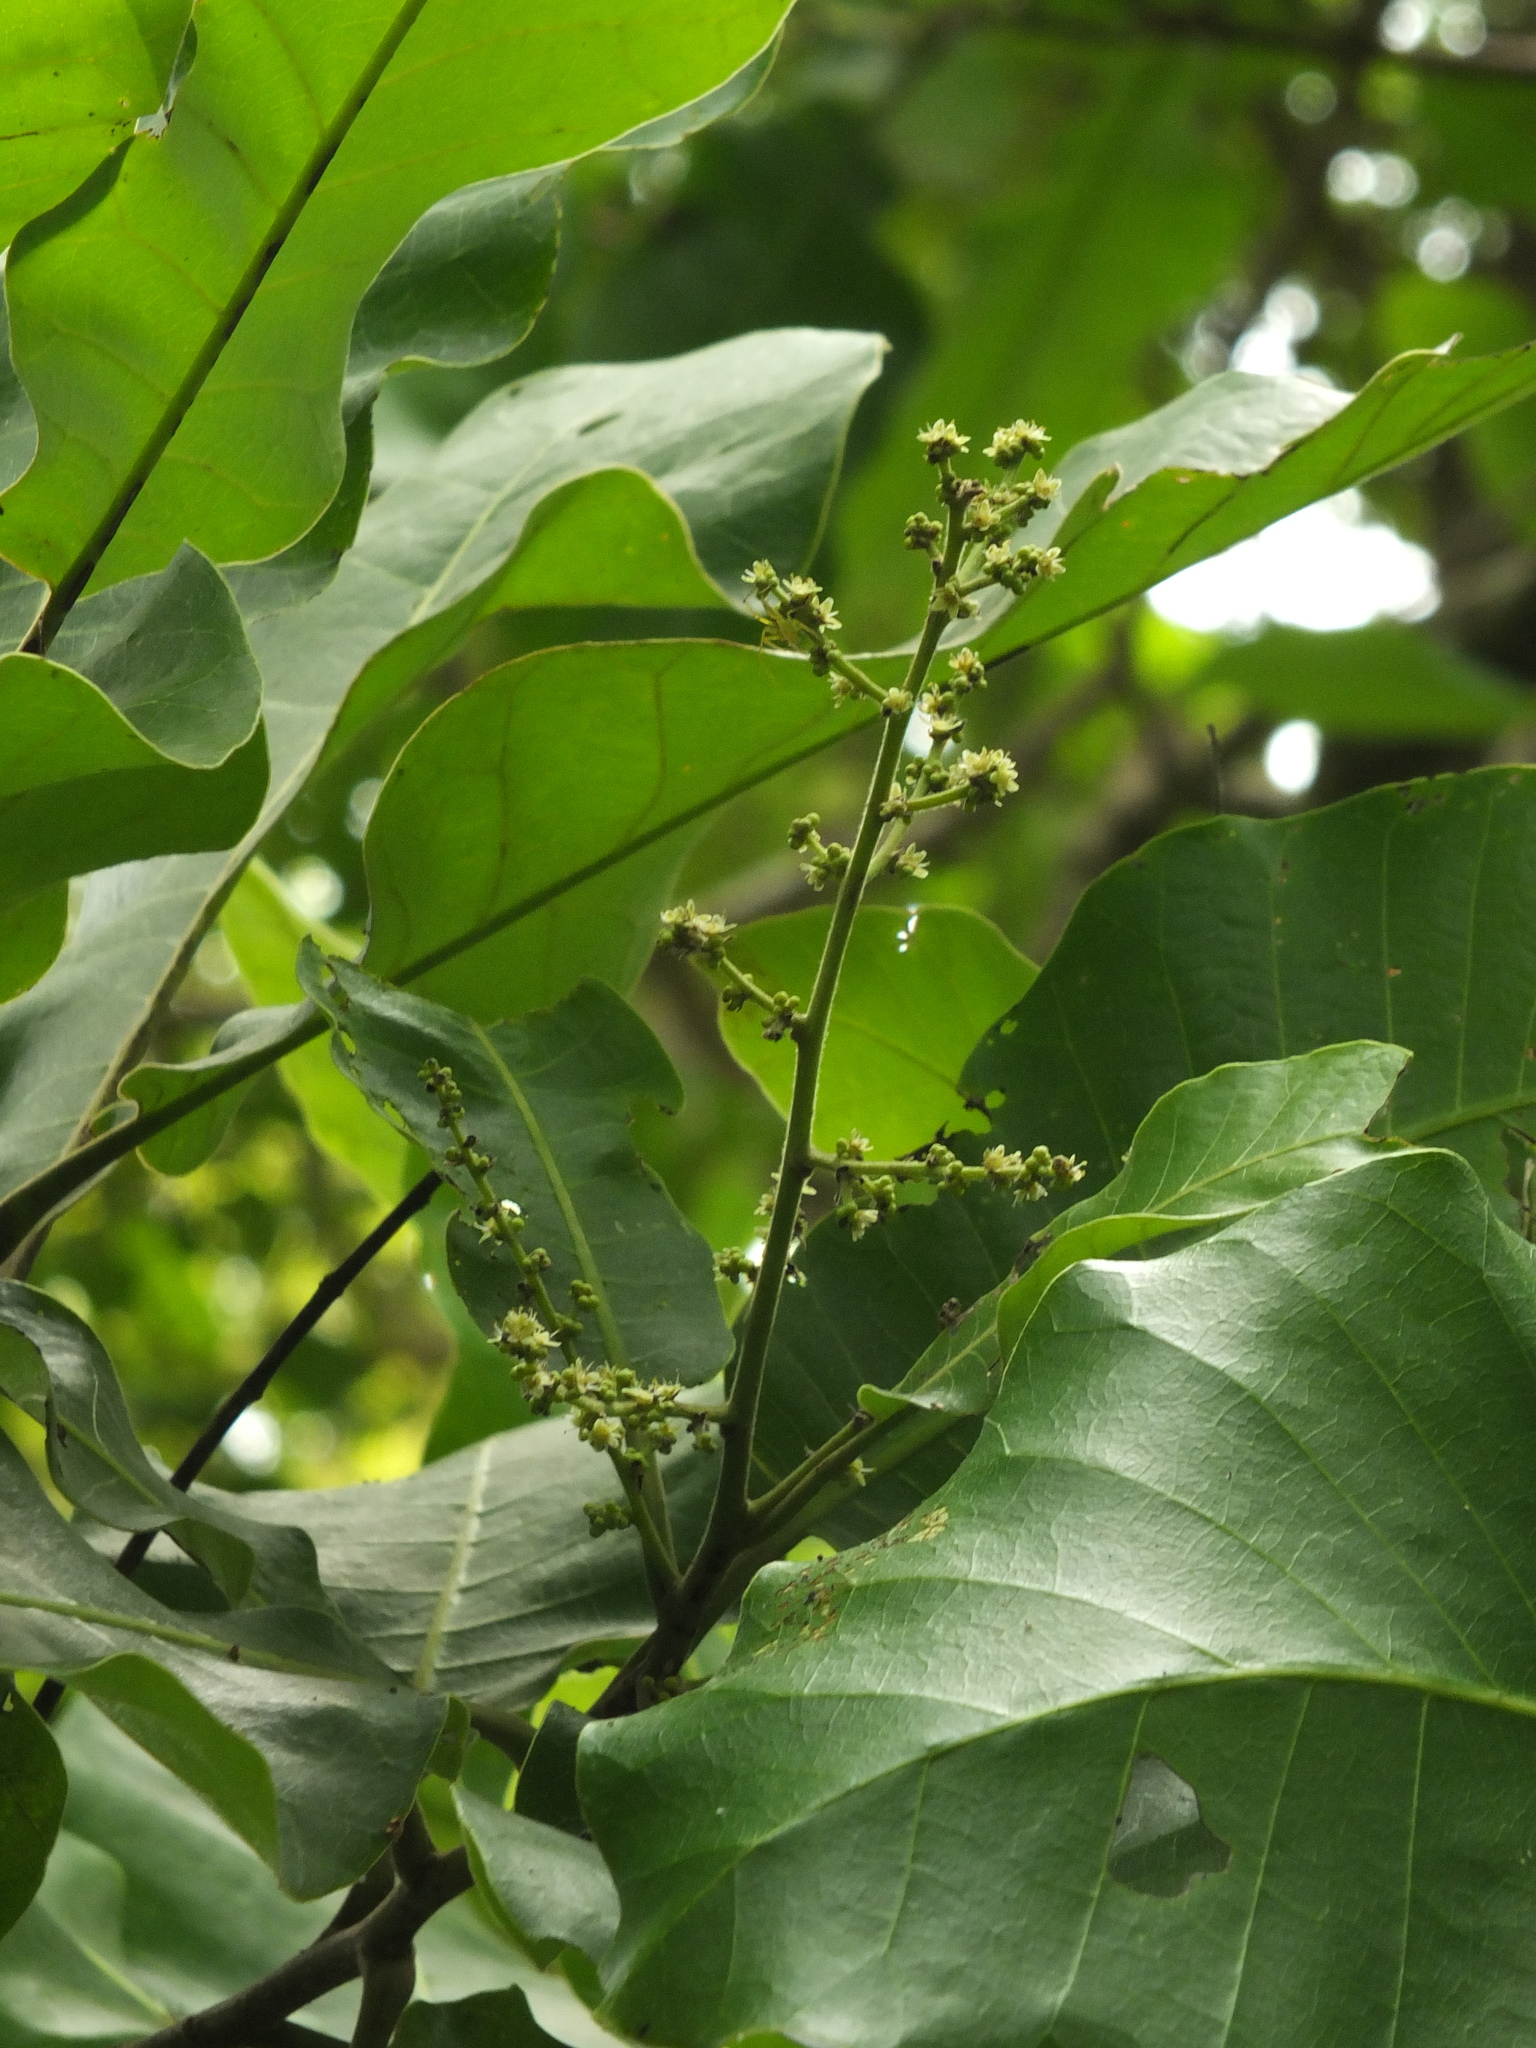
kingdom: Plantae
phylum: Tracheophyta
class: Magnoliopsida
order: Sapindales
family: Anacardiaceae
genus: Semecarpus
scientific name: Semecarpus anacardium
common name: Marking nut-tree
